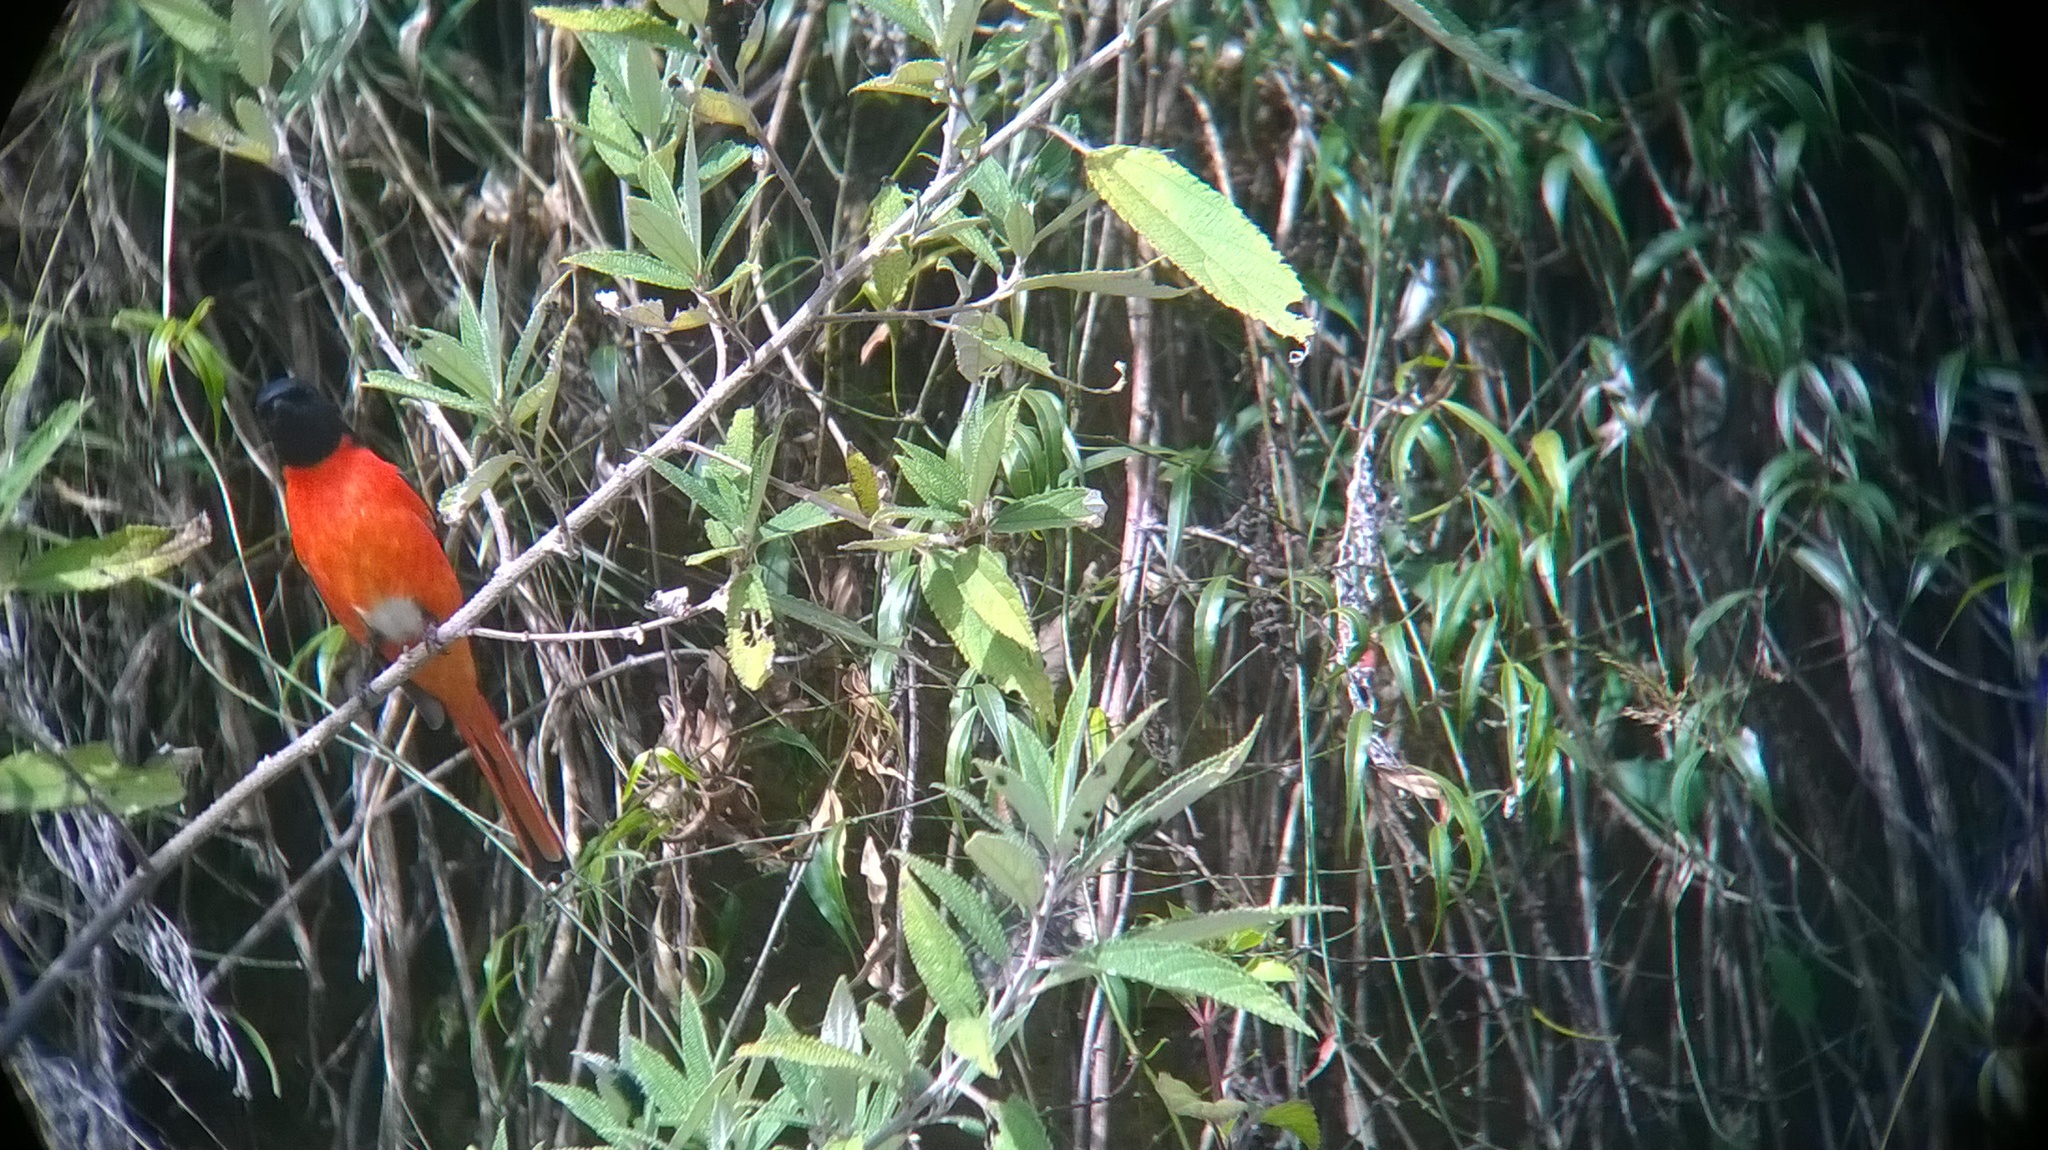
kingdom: Animalia
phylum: Chordata
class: Aves
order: Passeriformes
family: Campephagidae
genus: Pericrocotus
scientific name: Pericrocotus ethologus
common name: Long-tailed minivet
